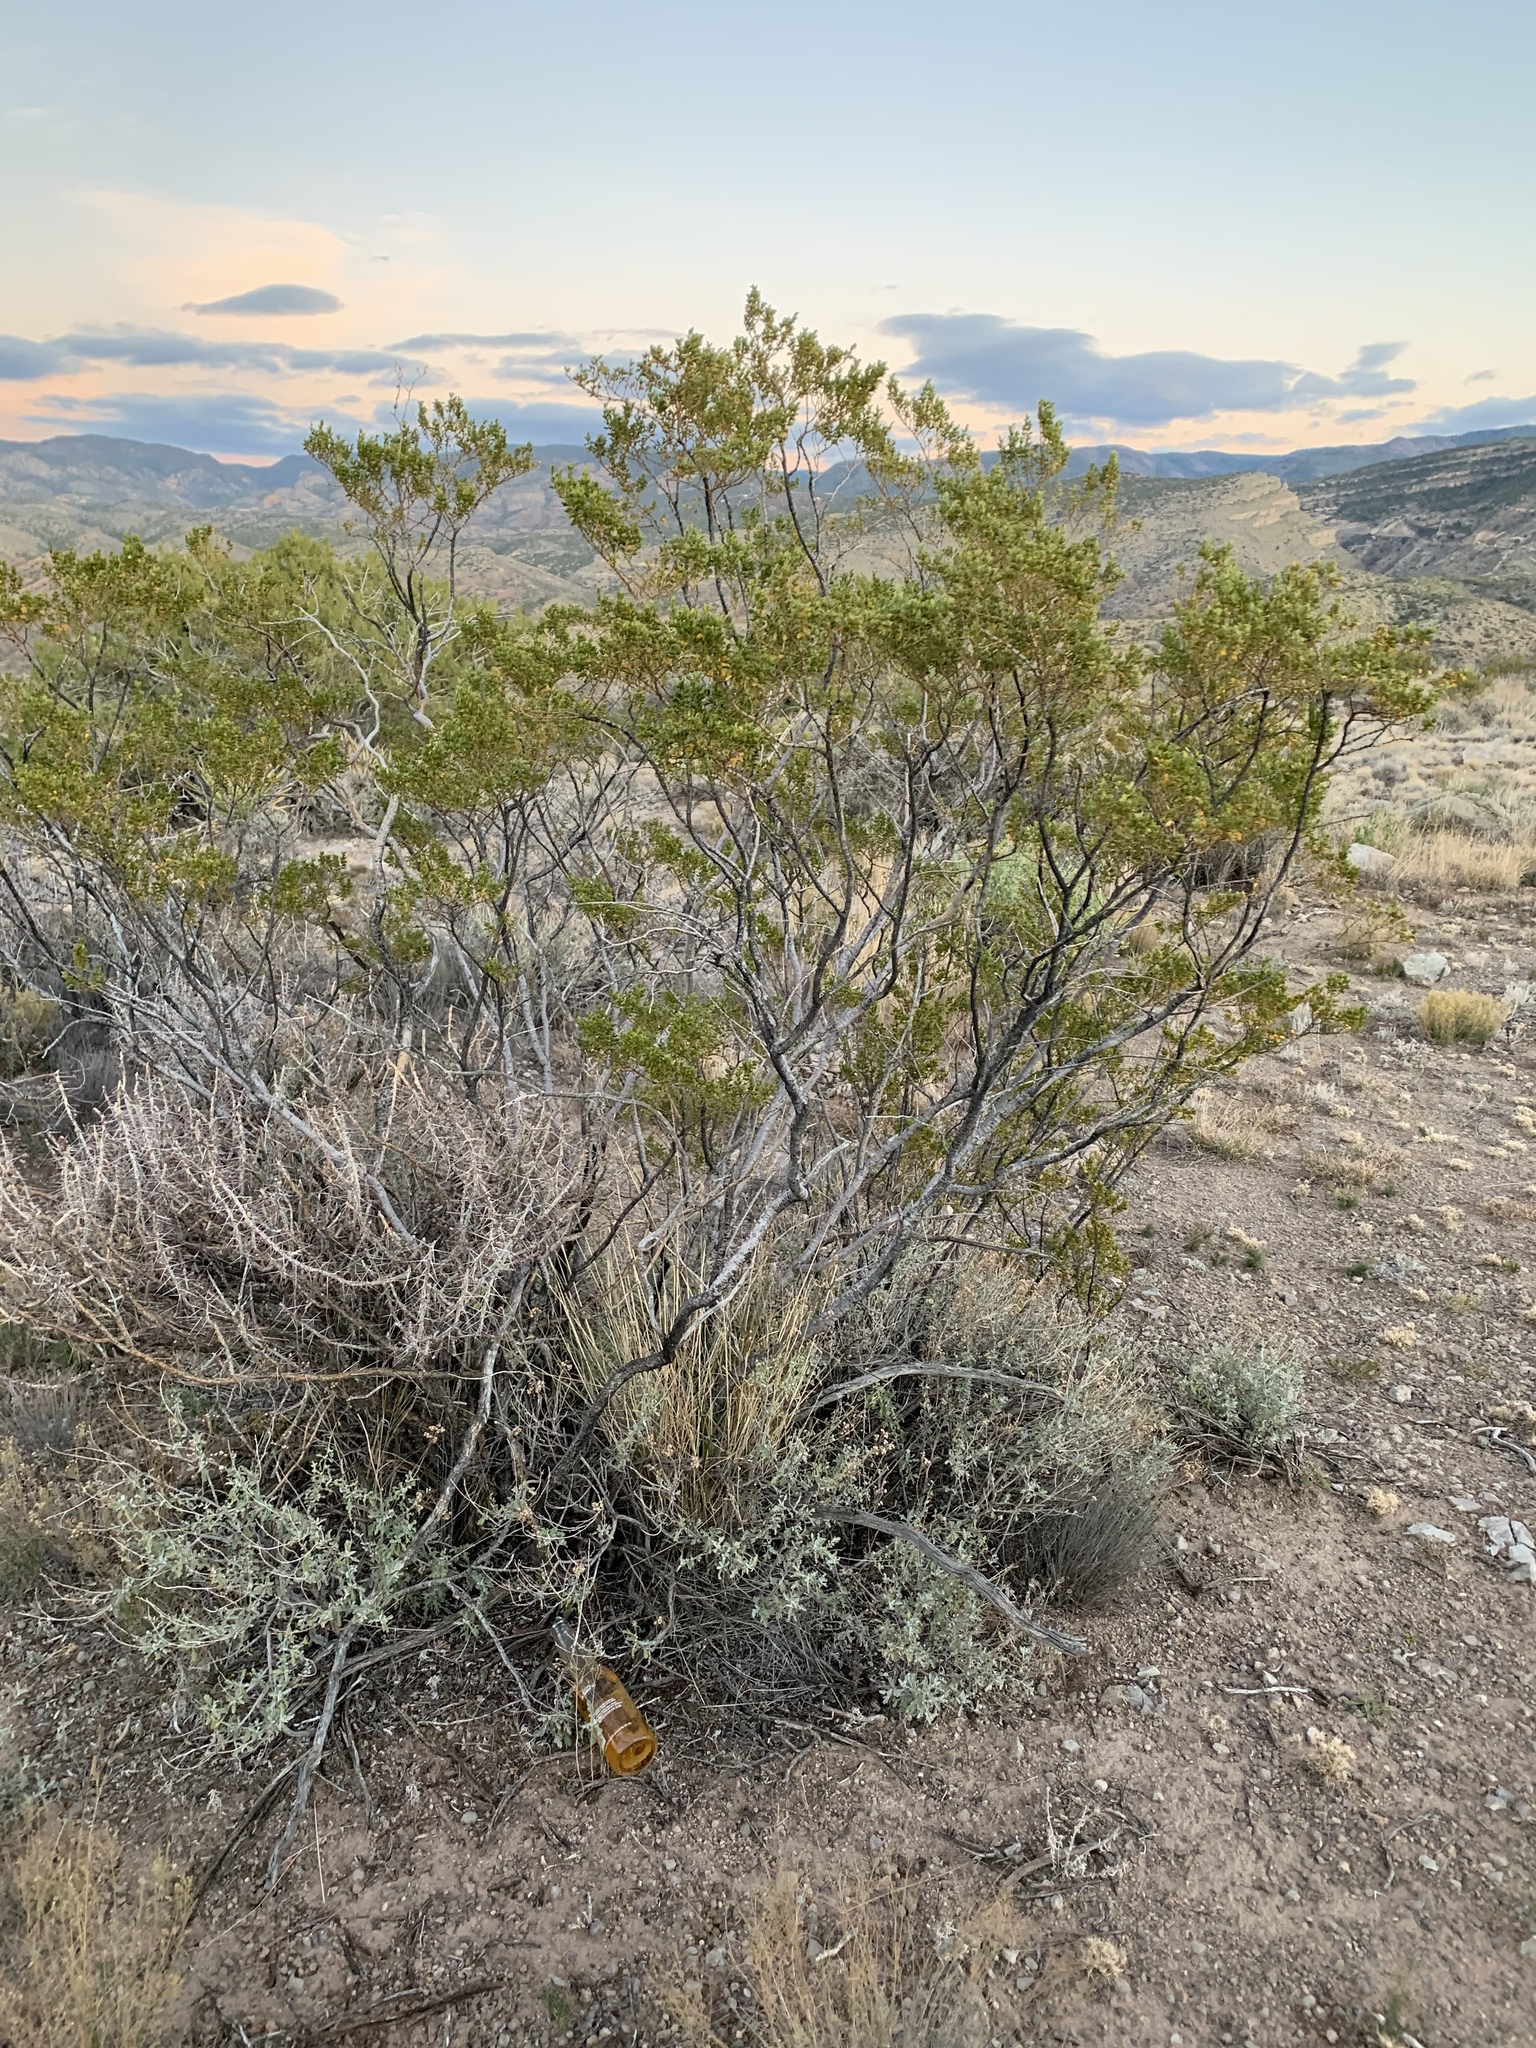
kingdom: Plantae
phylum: Tracheophyta
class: Magnoliopsida
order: Zygophyllales
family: Zygophyllaceae
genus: Larrea
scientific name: Larrea tridentata
